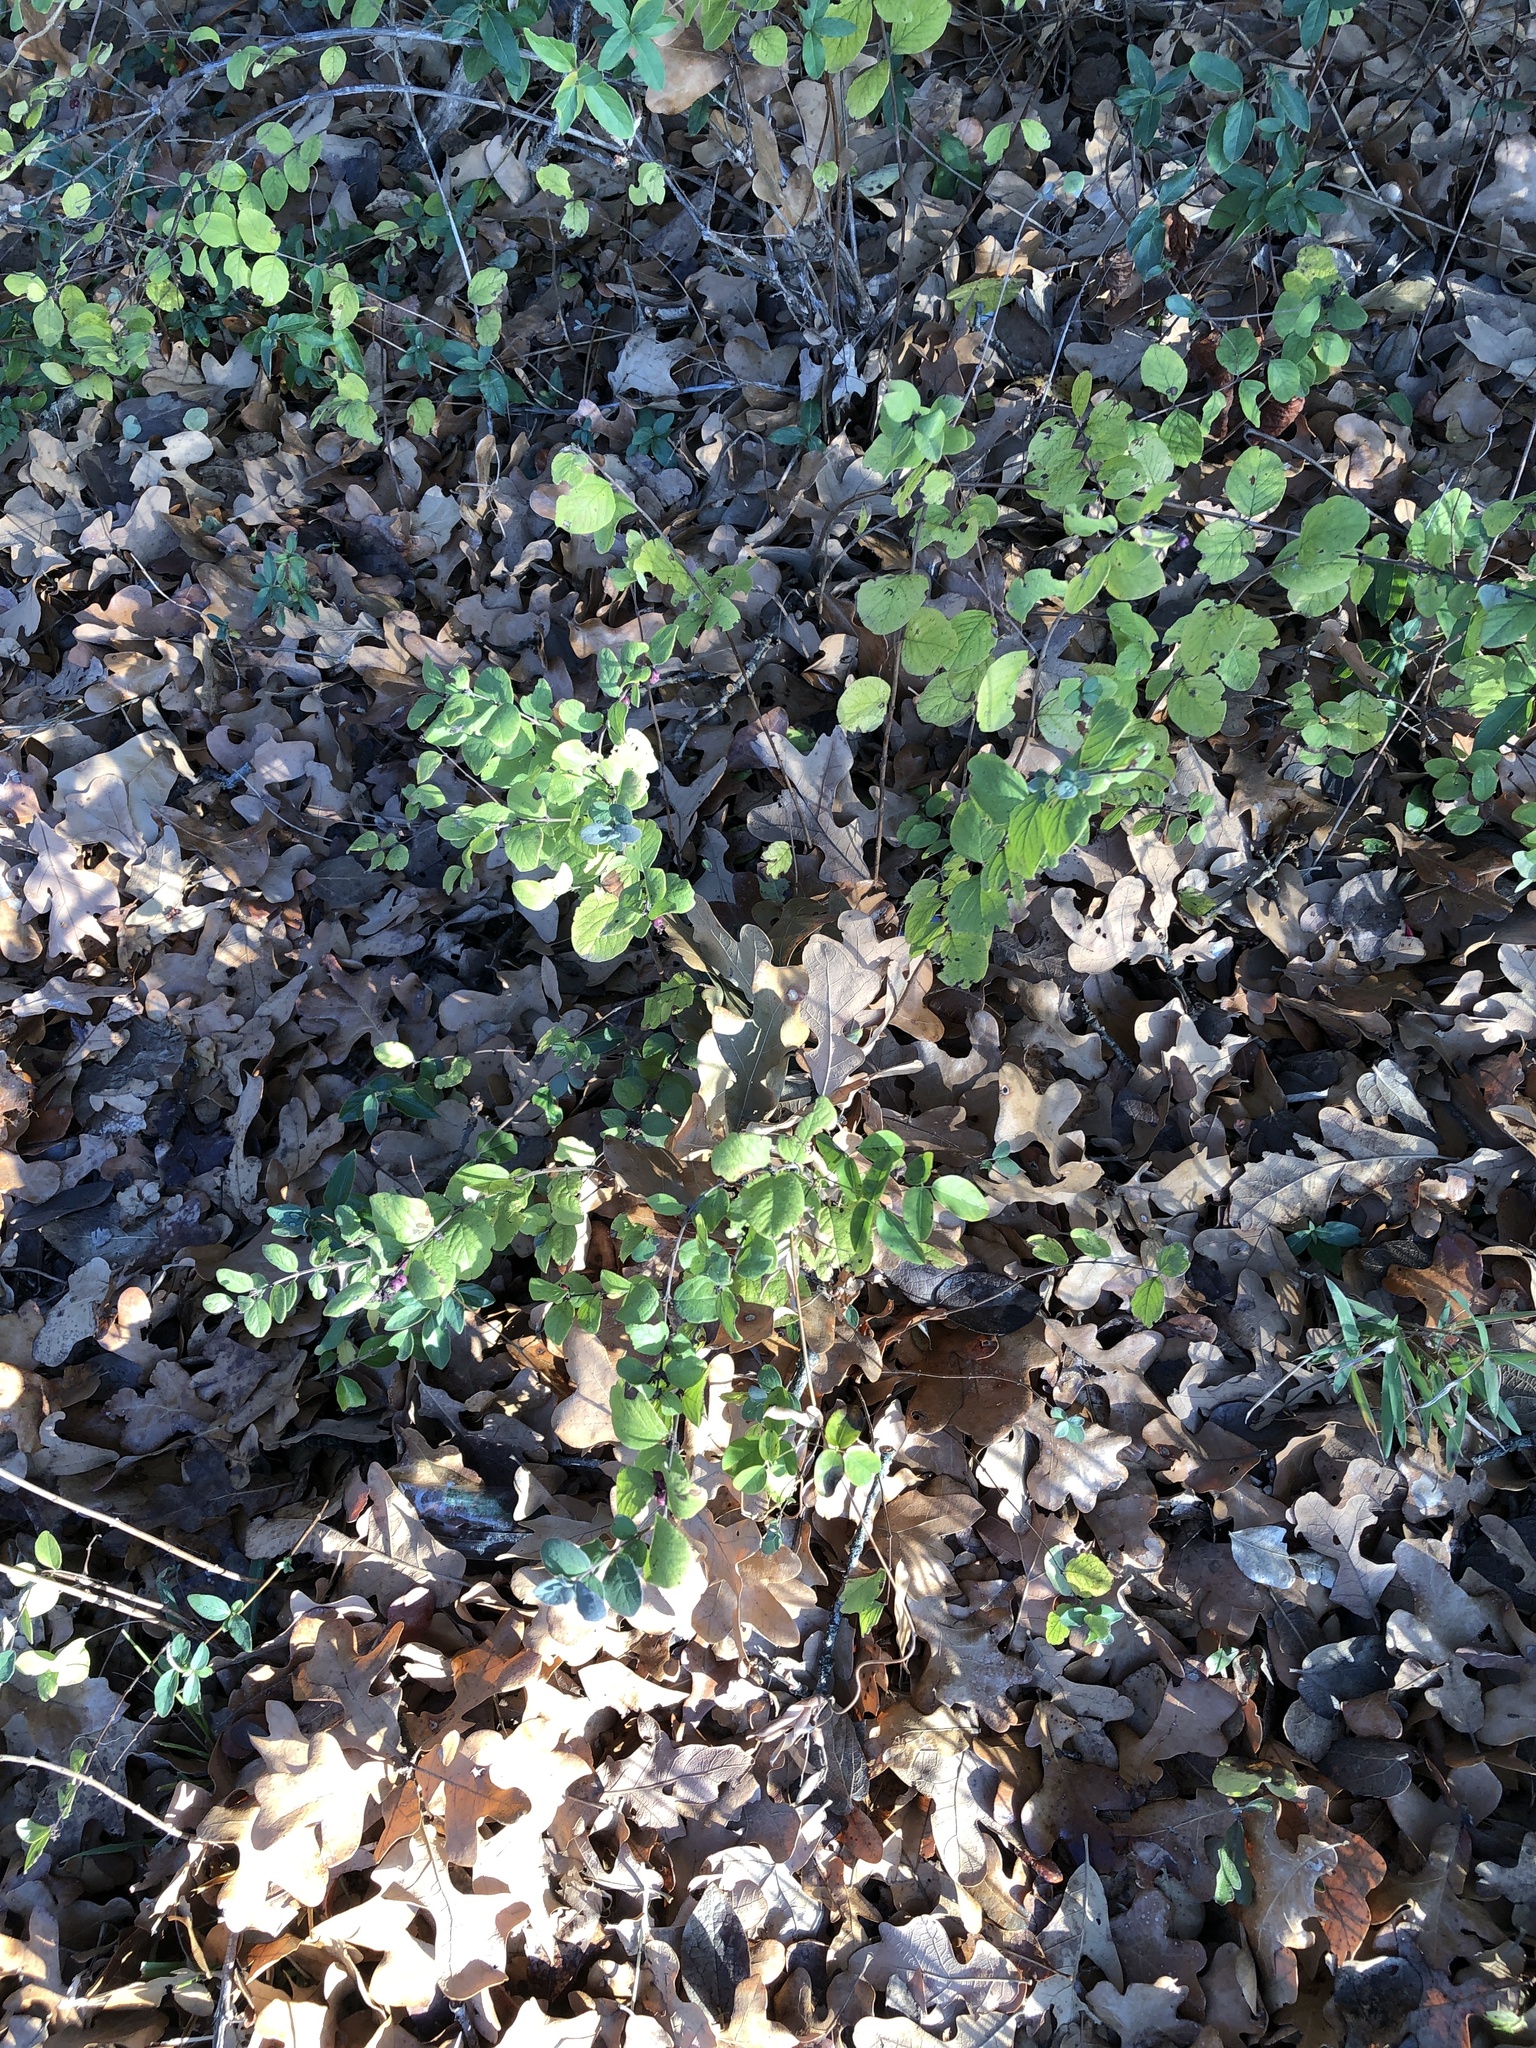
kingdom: Plantae
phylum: Tracheophyta
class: Magnoliopsida
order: Dipsacales
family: Caprifoliaceae
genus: Symphoricarpos
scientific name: Symphoricarpos orbiculatus
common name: Coralberry
